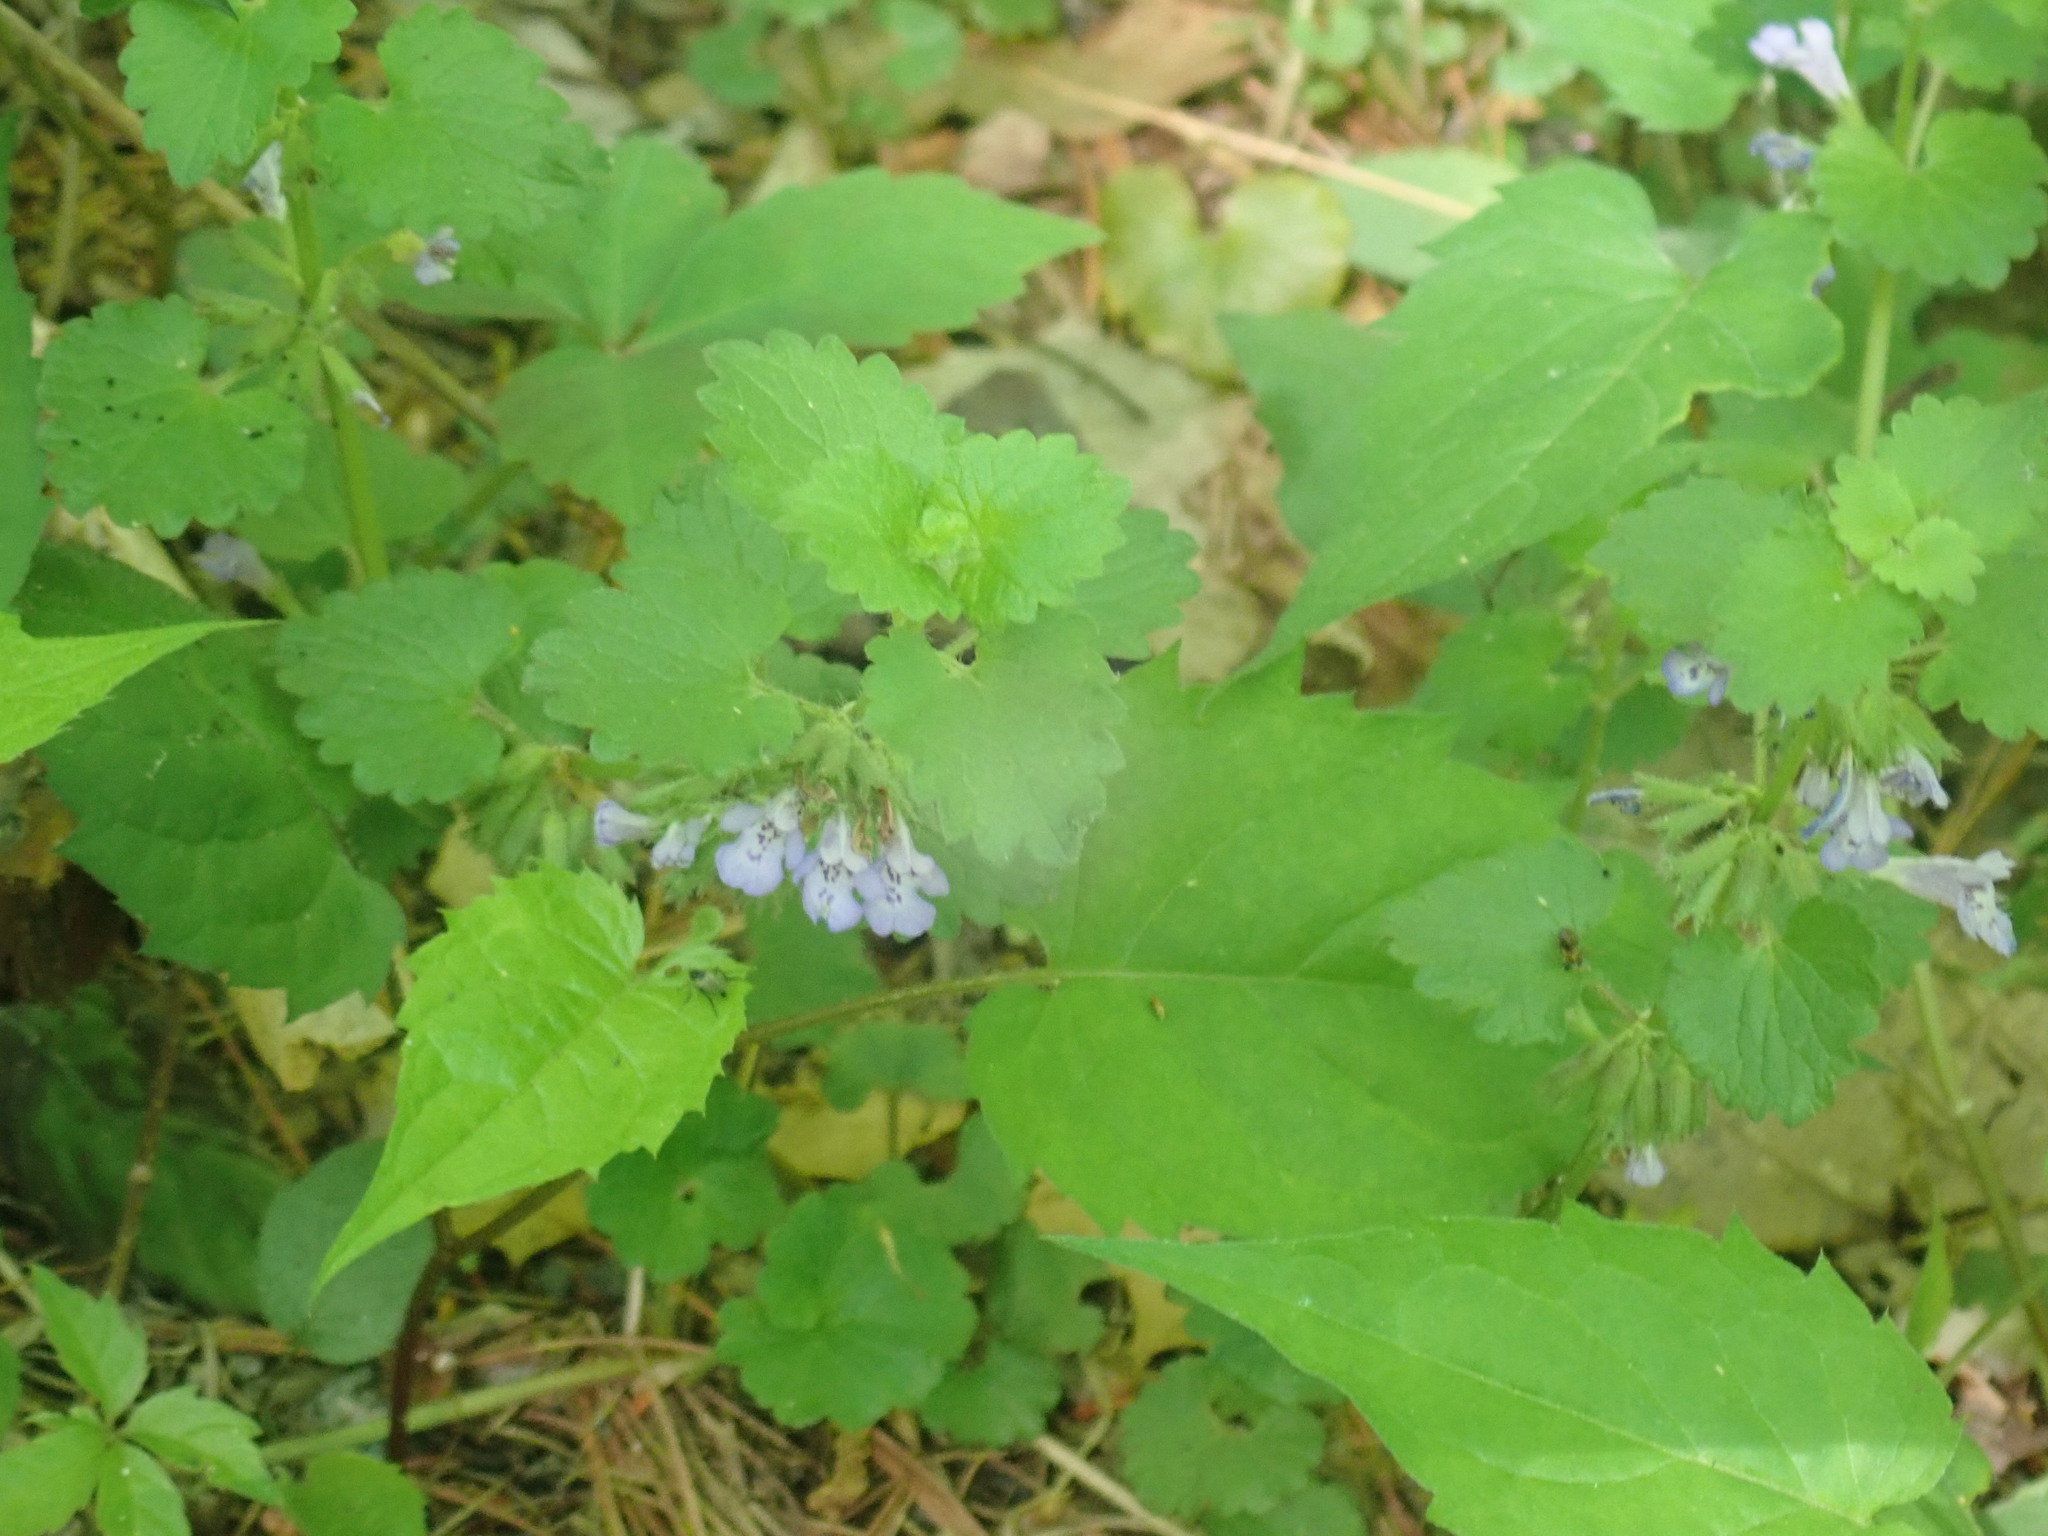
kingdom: Plantae
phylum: Tracheophyta
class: Magnoliopsida
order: Lamiales
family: Lamiaceae
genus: Glechoma
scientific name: Glechoma hederacea
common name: Ground ivy
